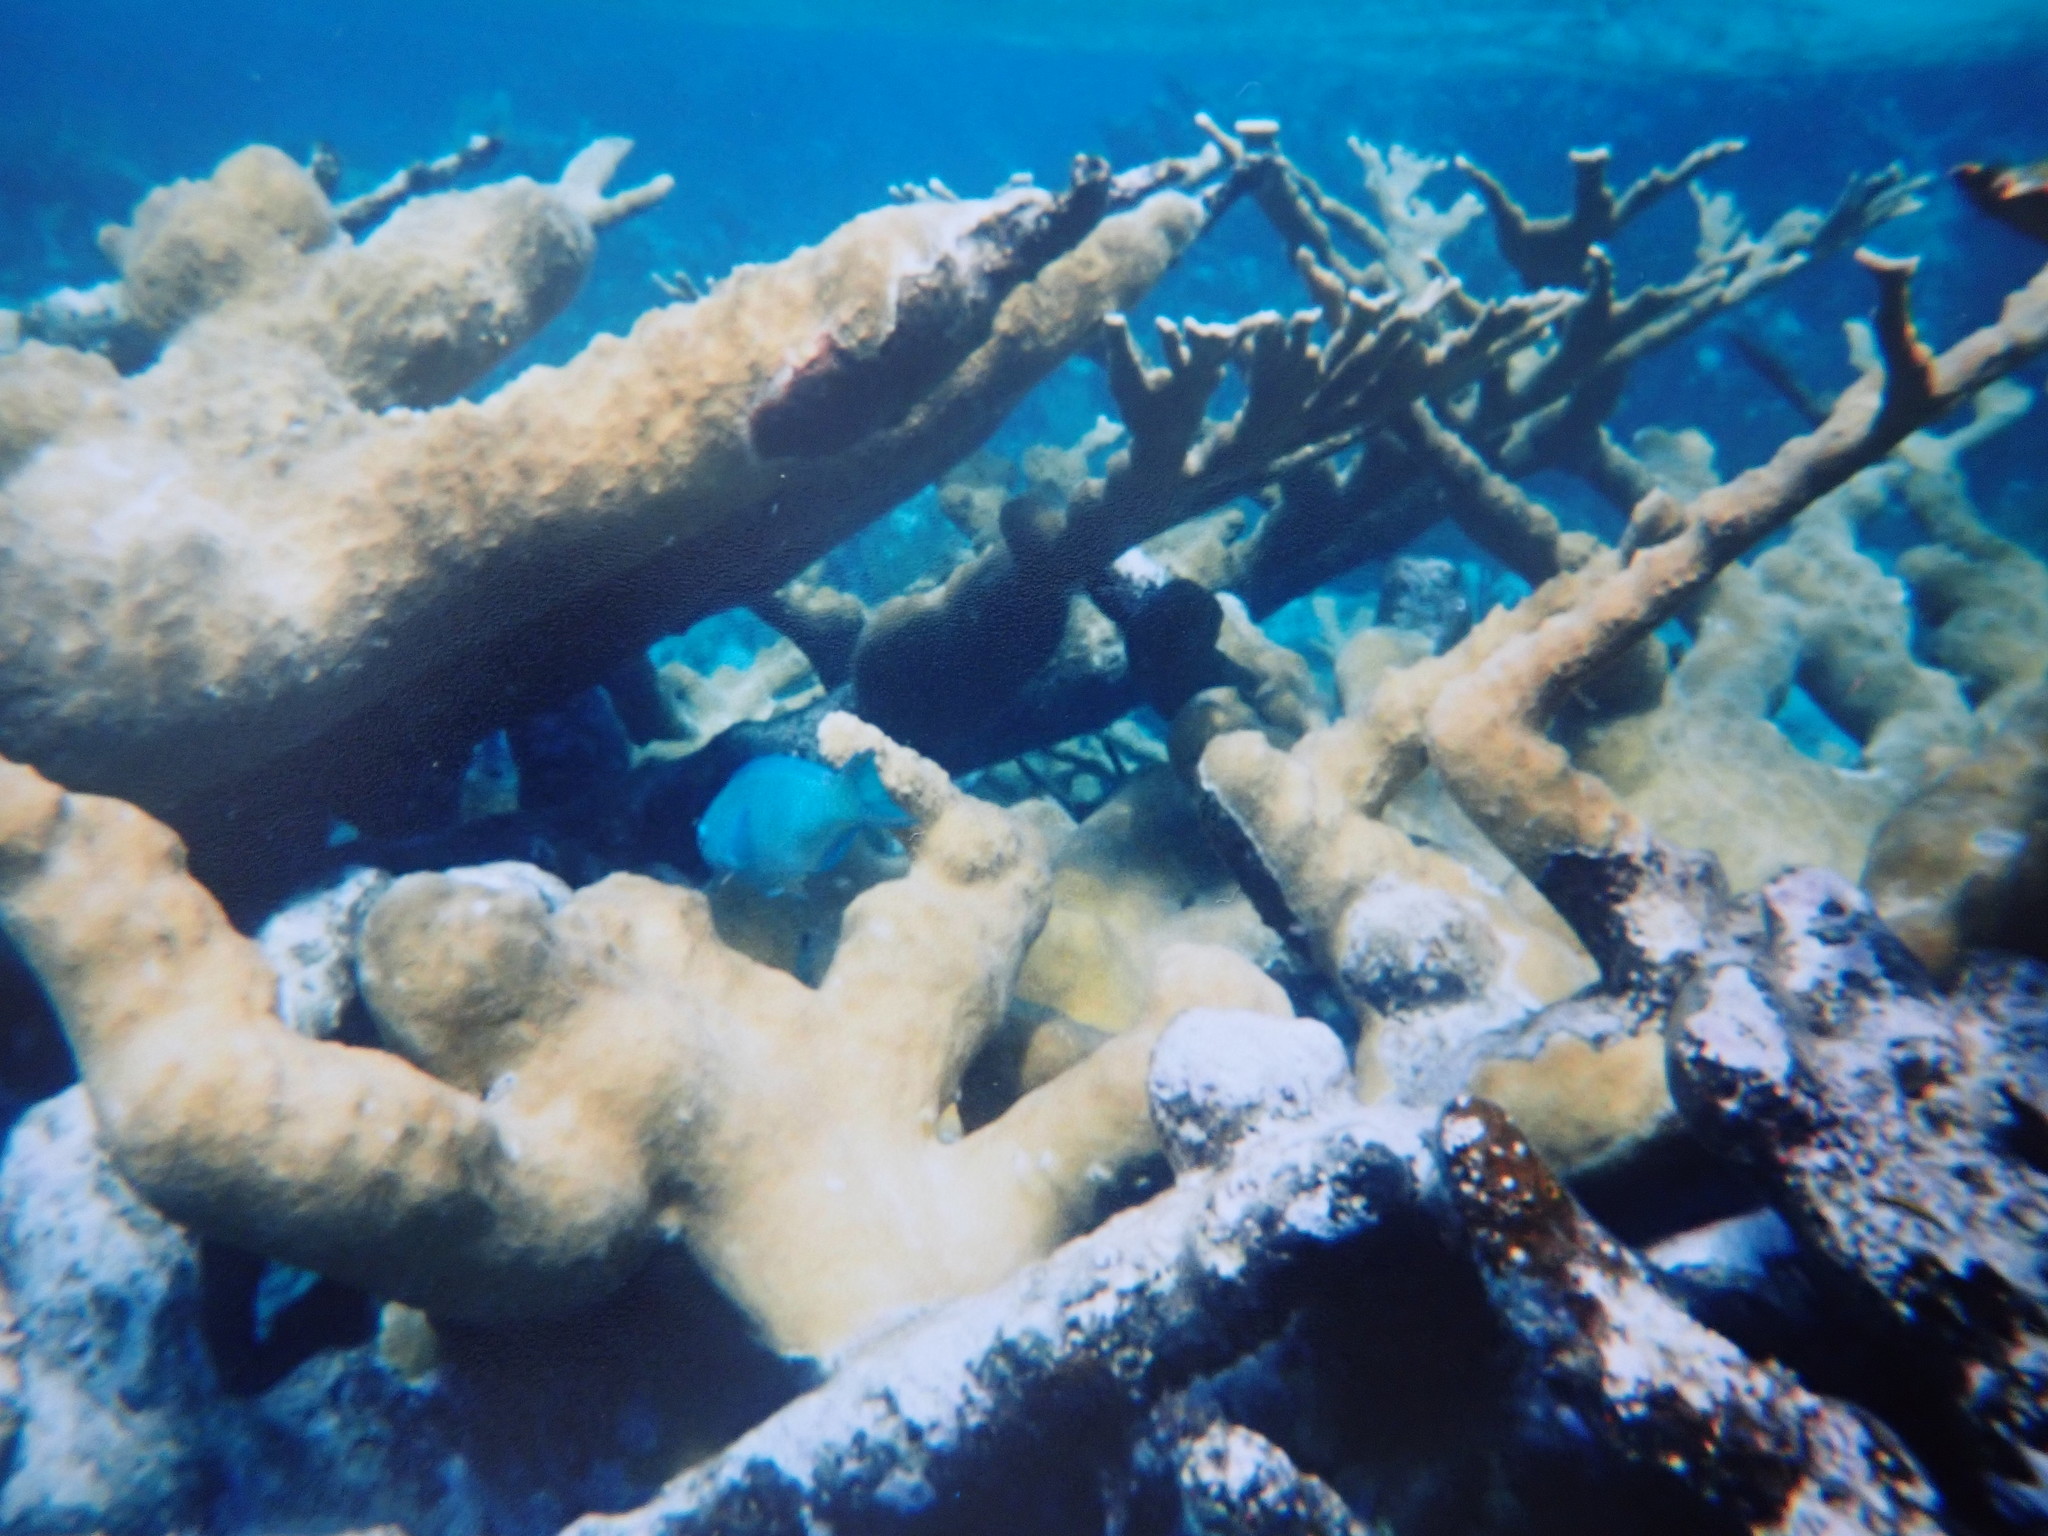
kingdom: Animalia
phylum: Cnidaria
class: Anthozoa
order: Scleractinia
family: Acroporidae
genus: Acropora
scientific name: Acropora palmata
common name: Elkhorn coral
